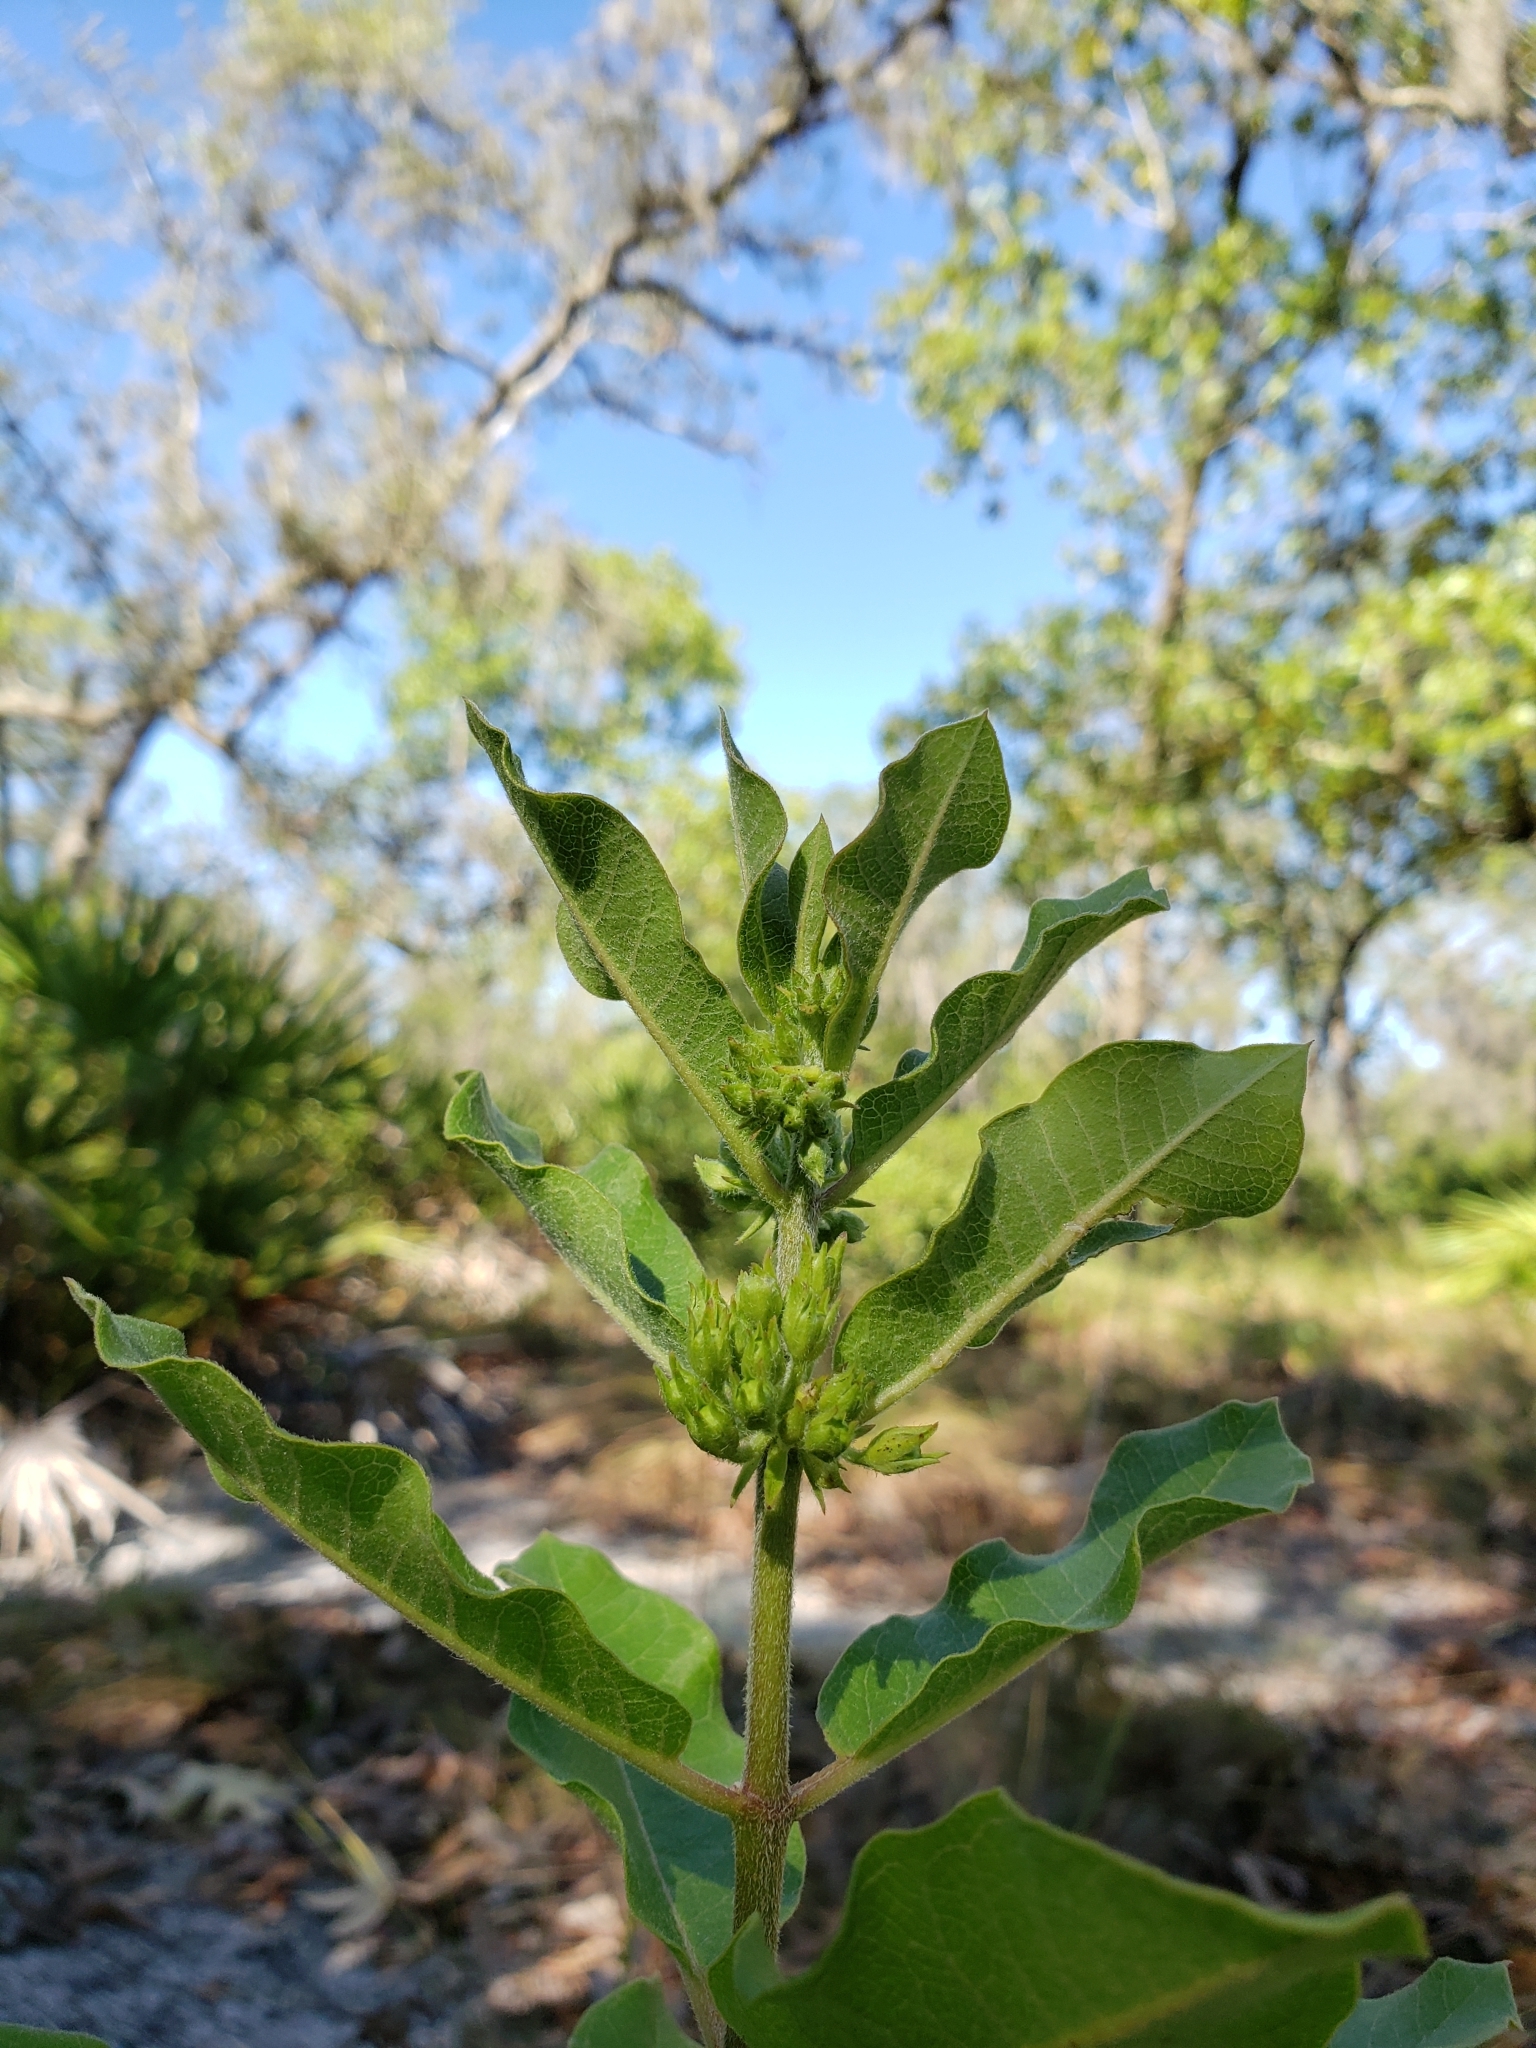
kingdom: Plantae
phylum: Tracheophyta
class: Magnoliopsida
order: Gentianales
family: Apocynaceae
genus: Asclepias
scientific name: Asclepias tomentosa
